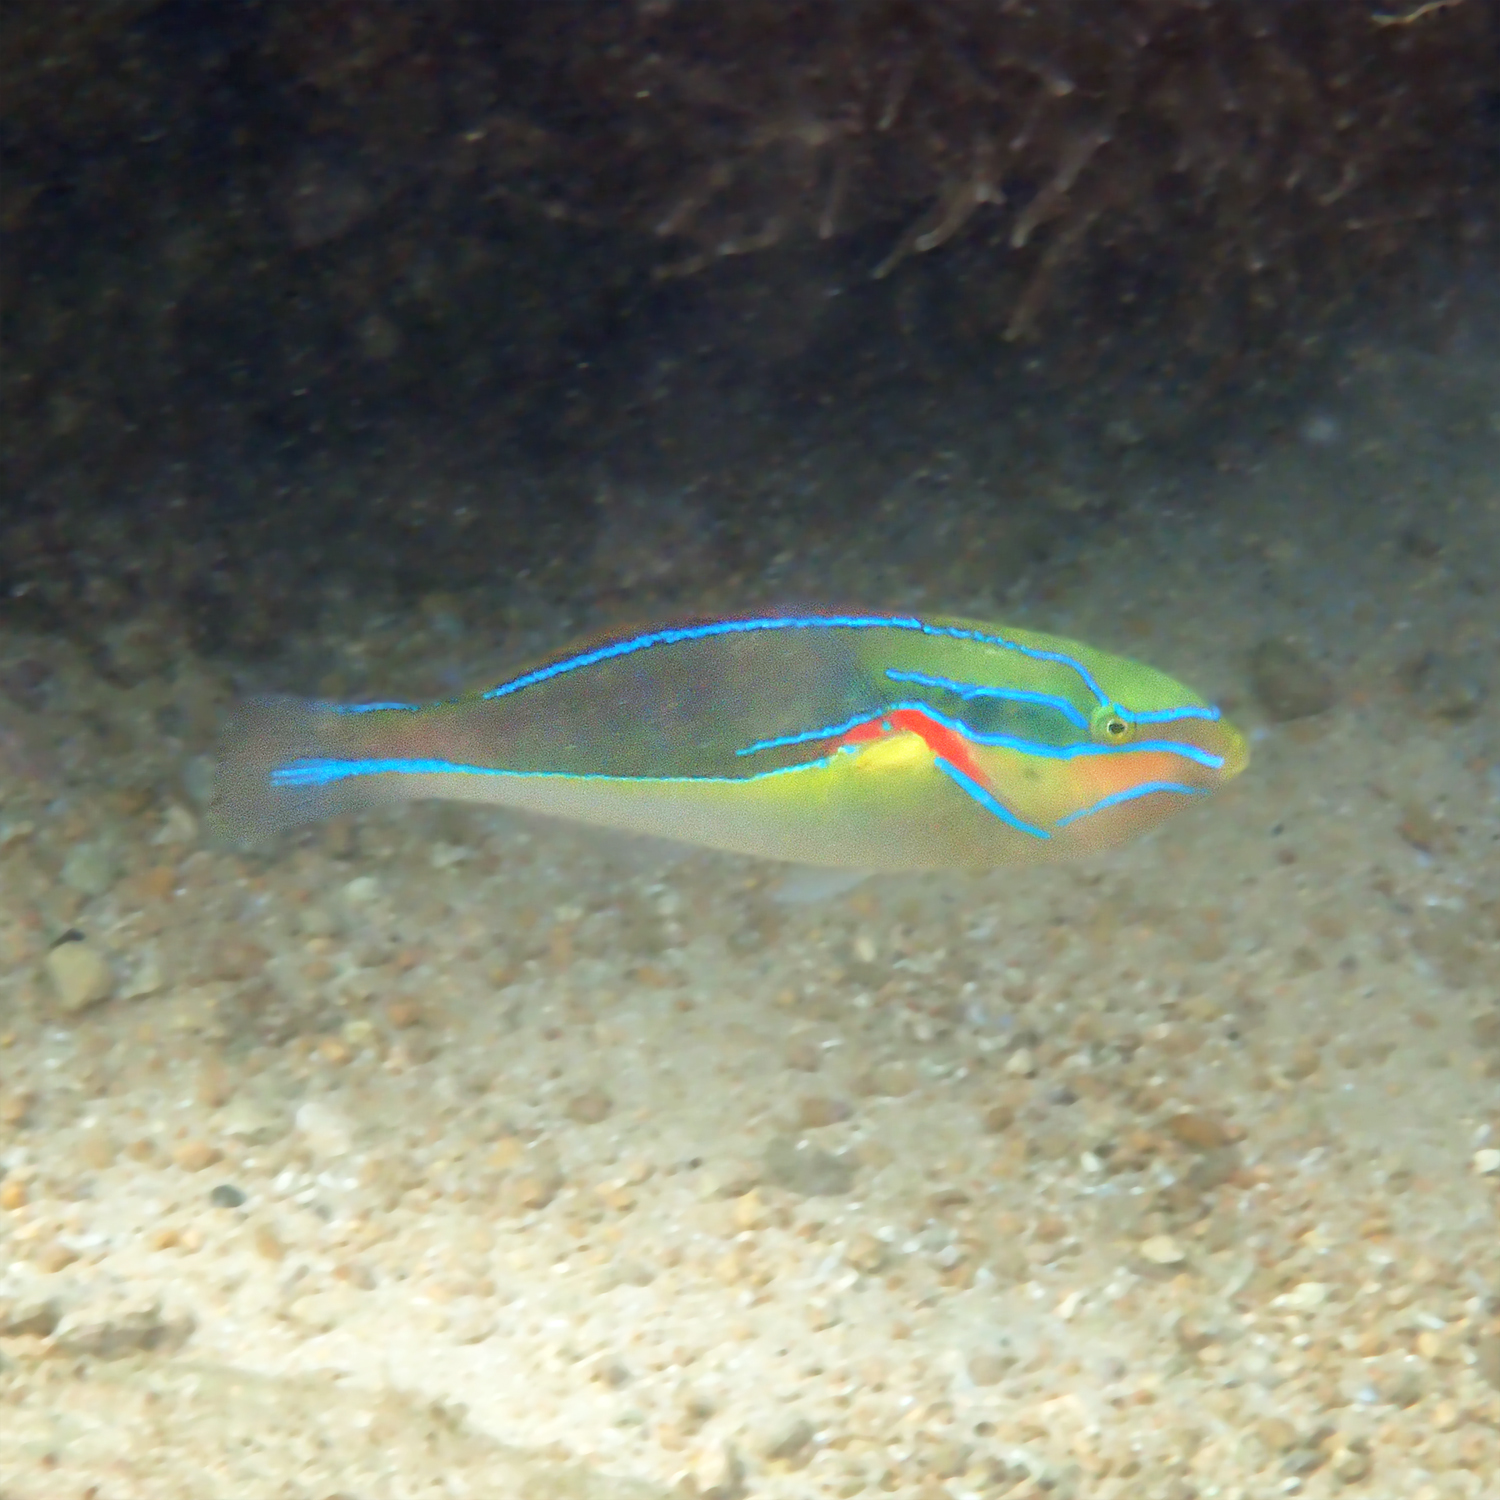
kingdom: Animalia
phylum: Chordata
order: Perciformes
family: Labridae
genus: Stethojulis
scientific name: Stethojulis bandanensis
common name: Red shoulder wrasse
